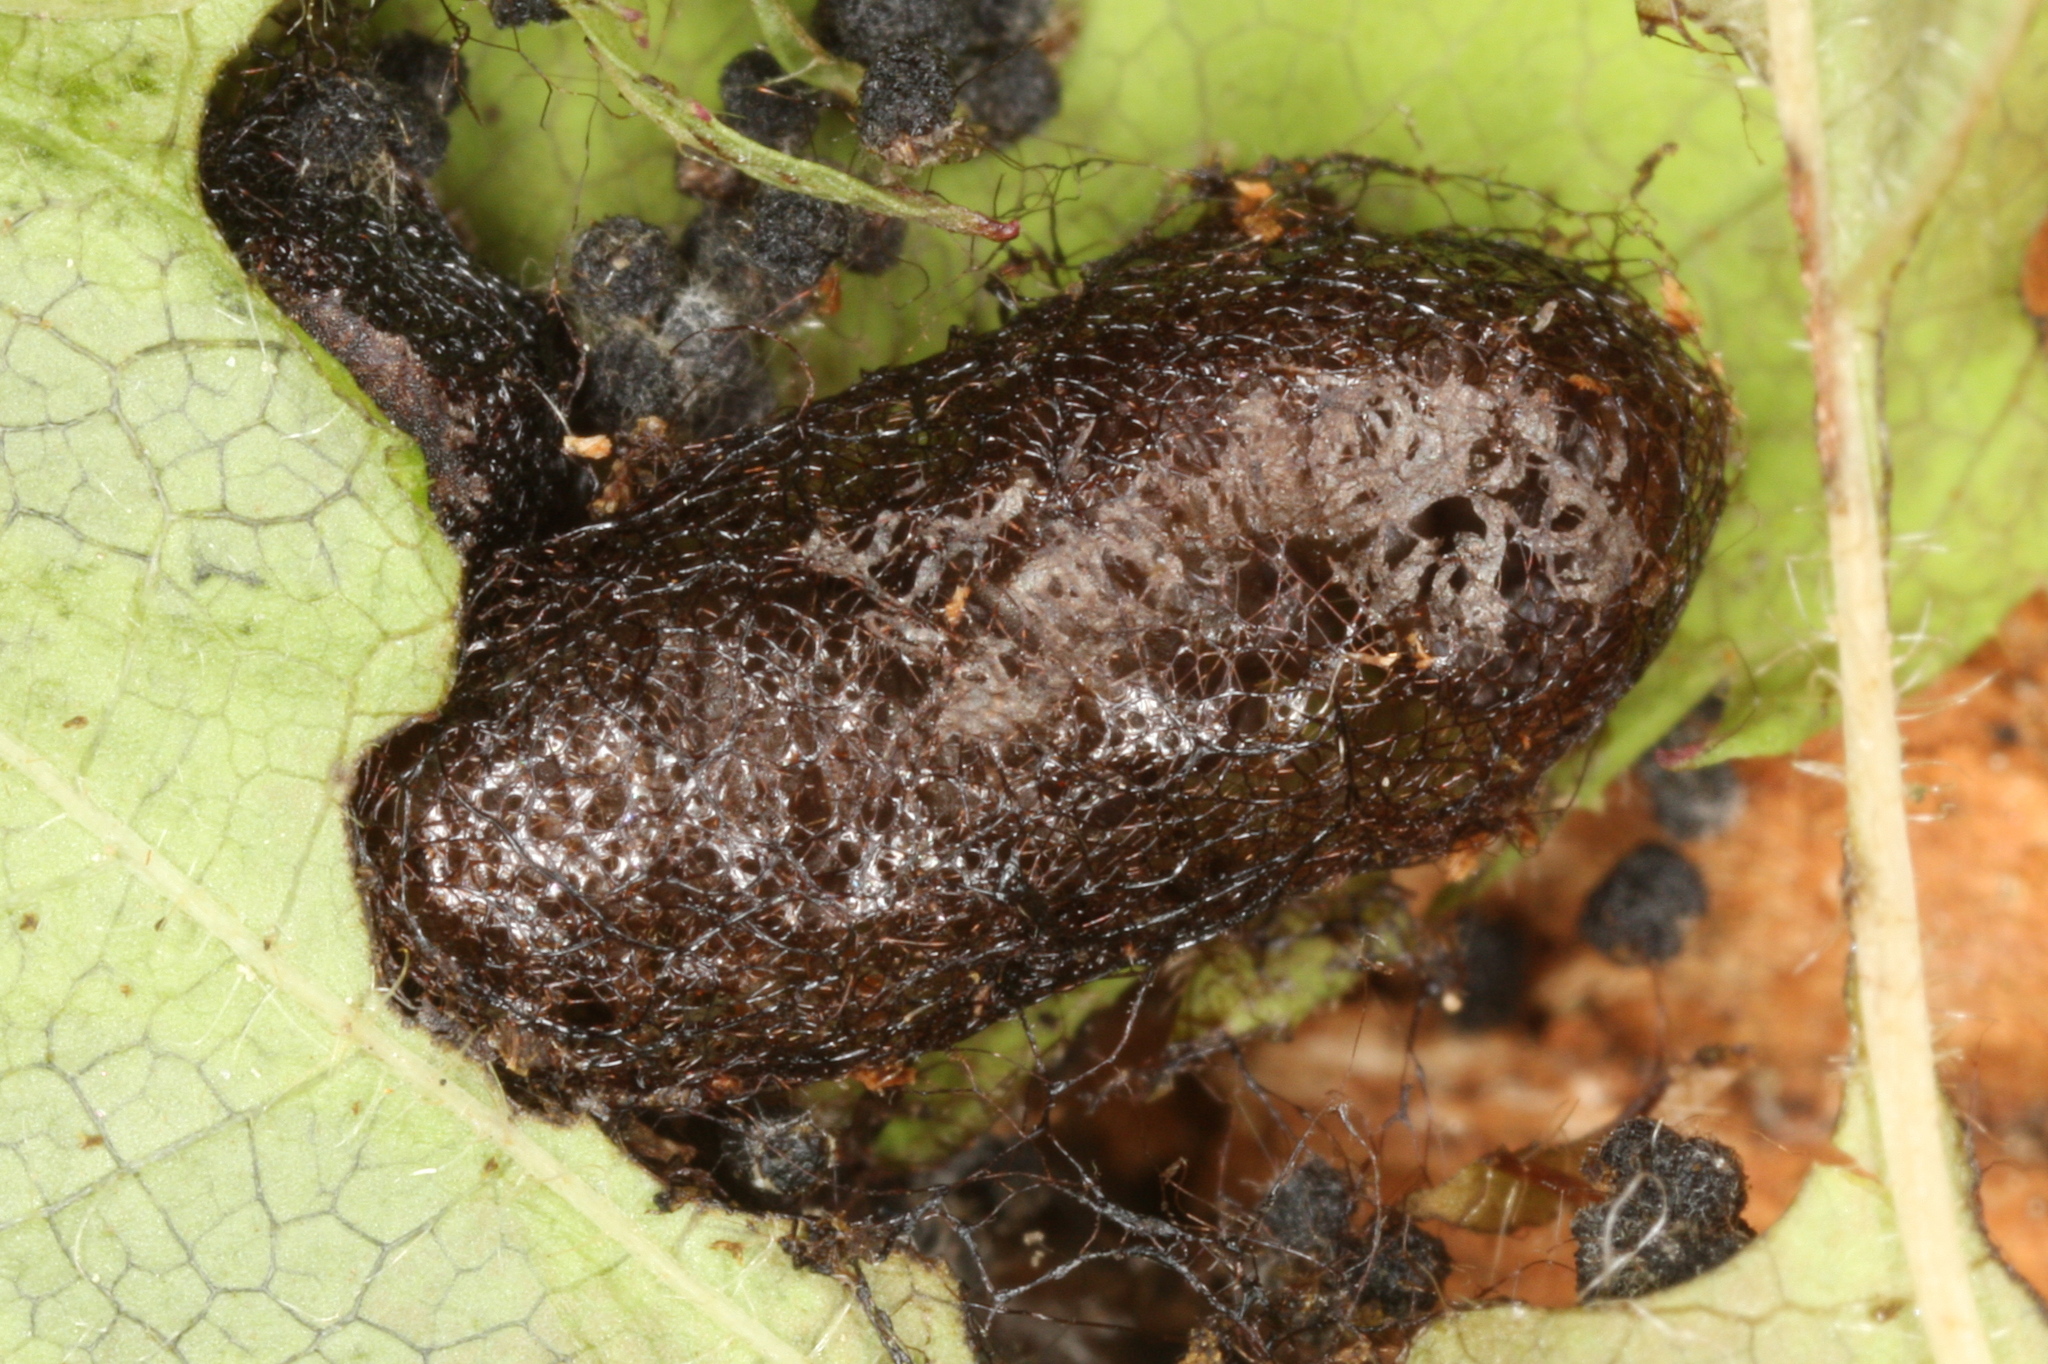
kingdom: Animalia
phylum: Arthropoda
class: Insecta
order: Hymenoptera
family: Tenthredinidae
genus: Euura
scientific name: Euura spiraeae
